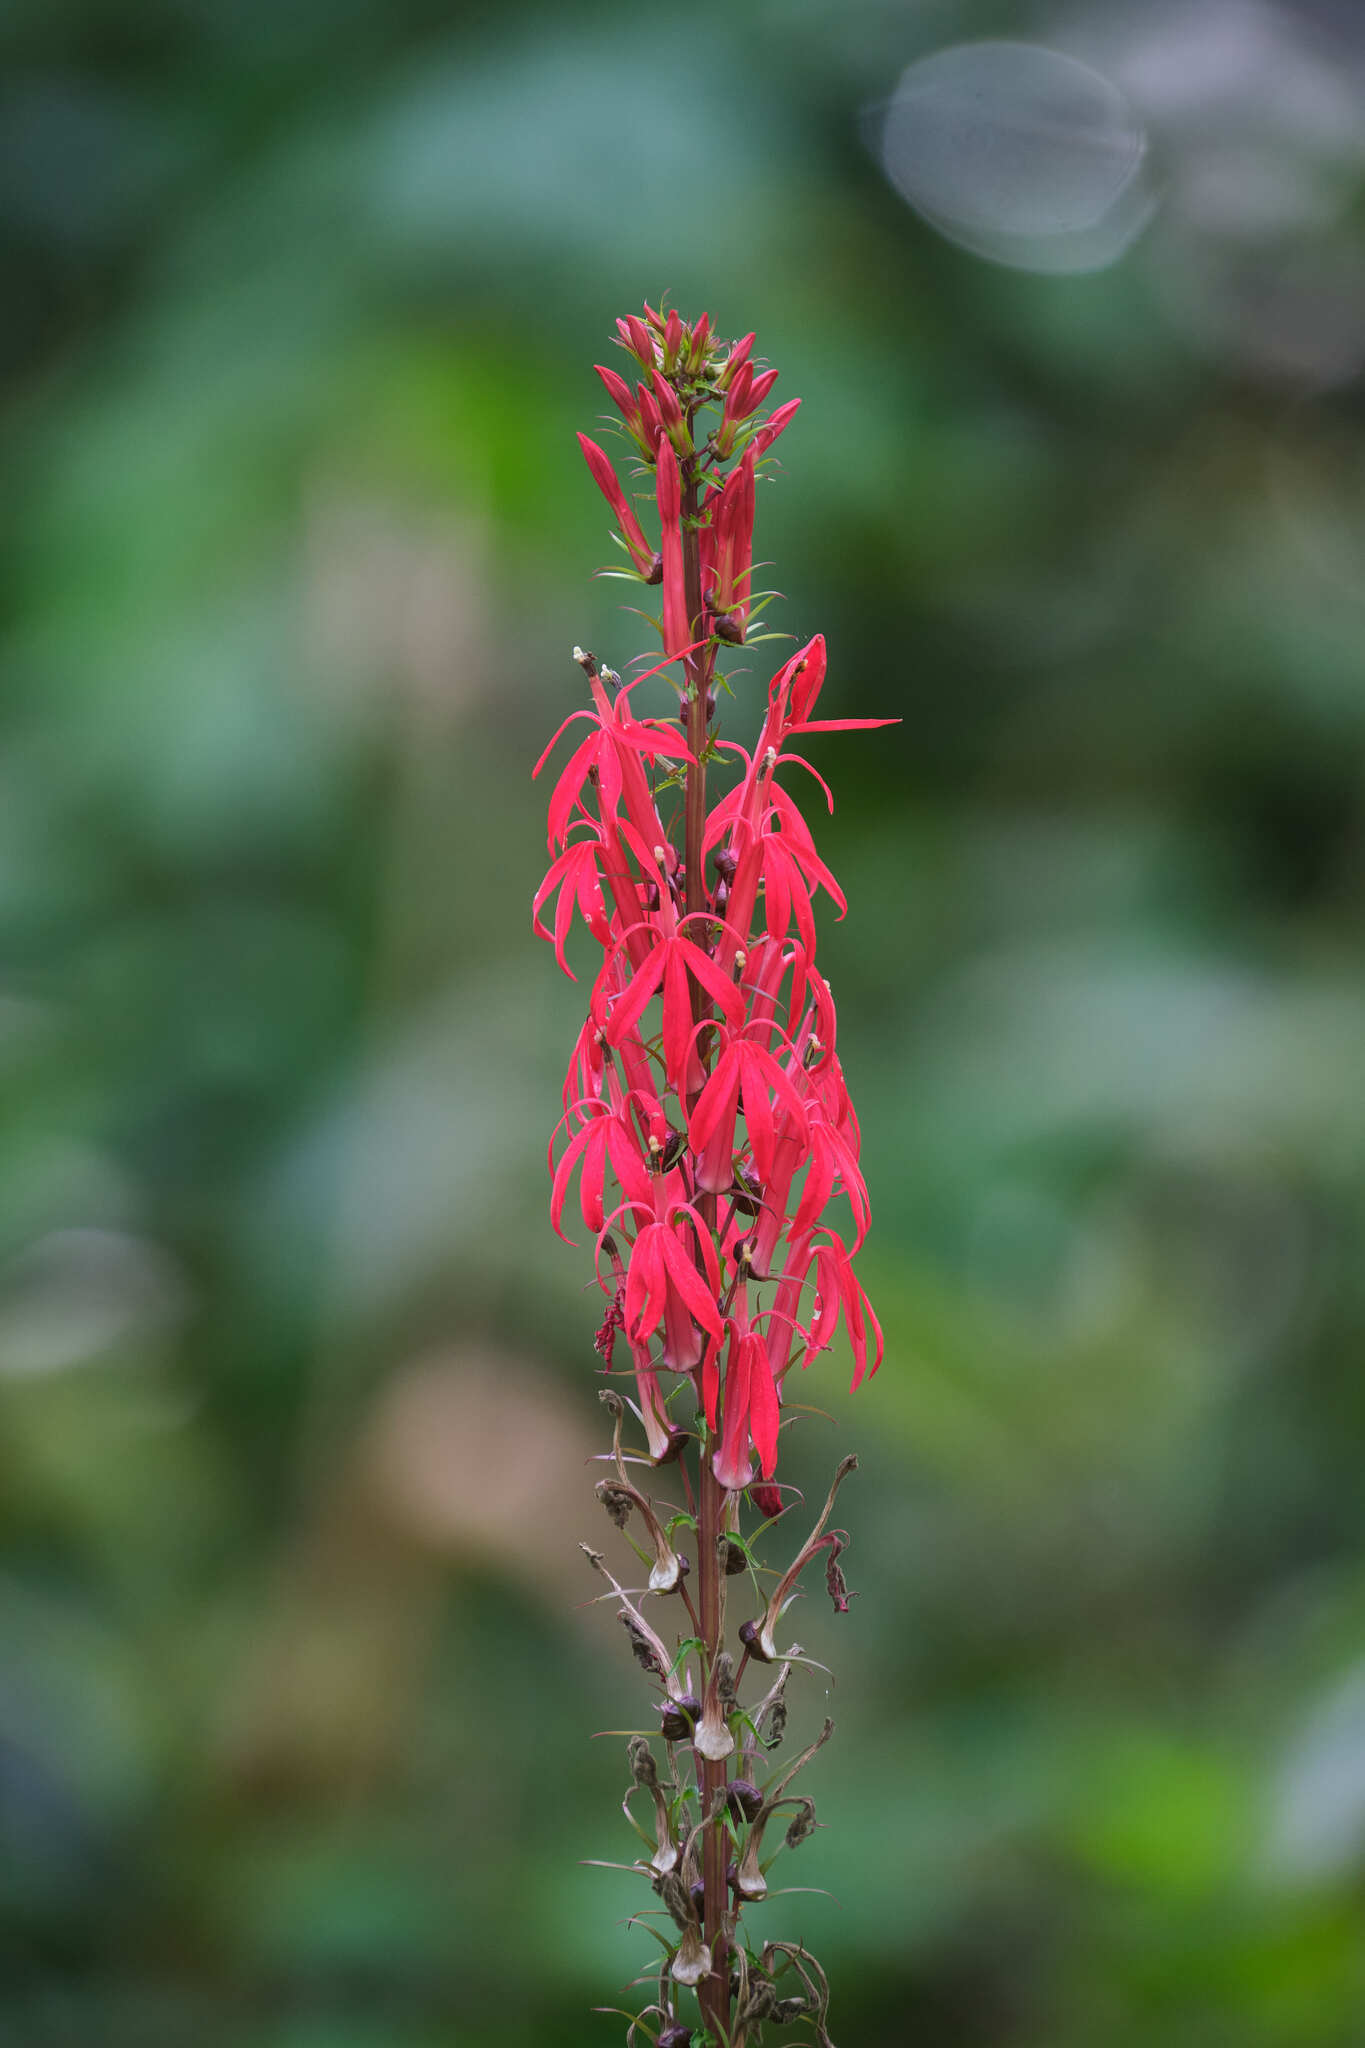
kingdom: Plantae
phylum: Tracheophyta
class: Magnoliopsida
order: Asterales
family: Campanulaceae
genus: Lobelia
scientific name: Lobelia cardinalis
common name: Cardinal flower
